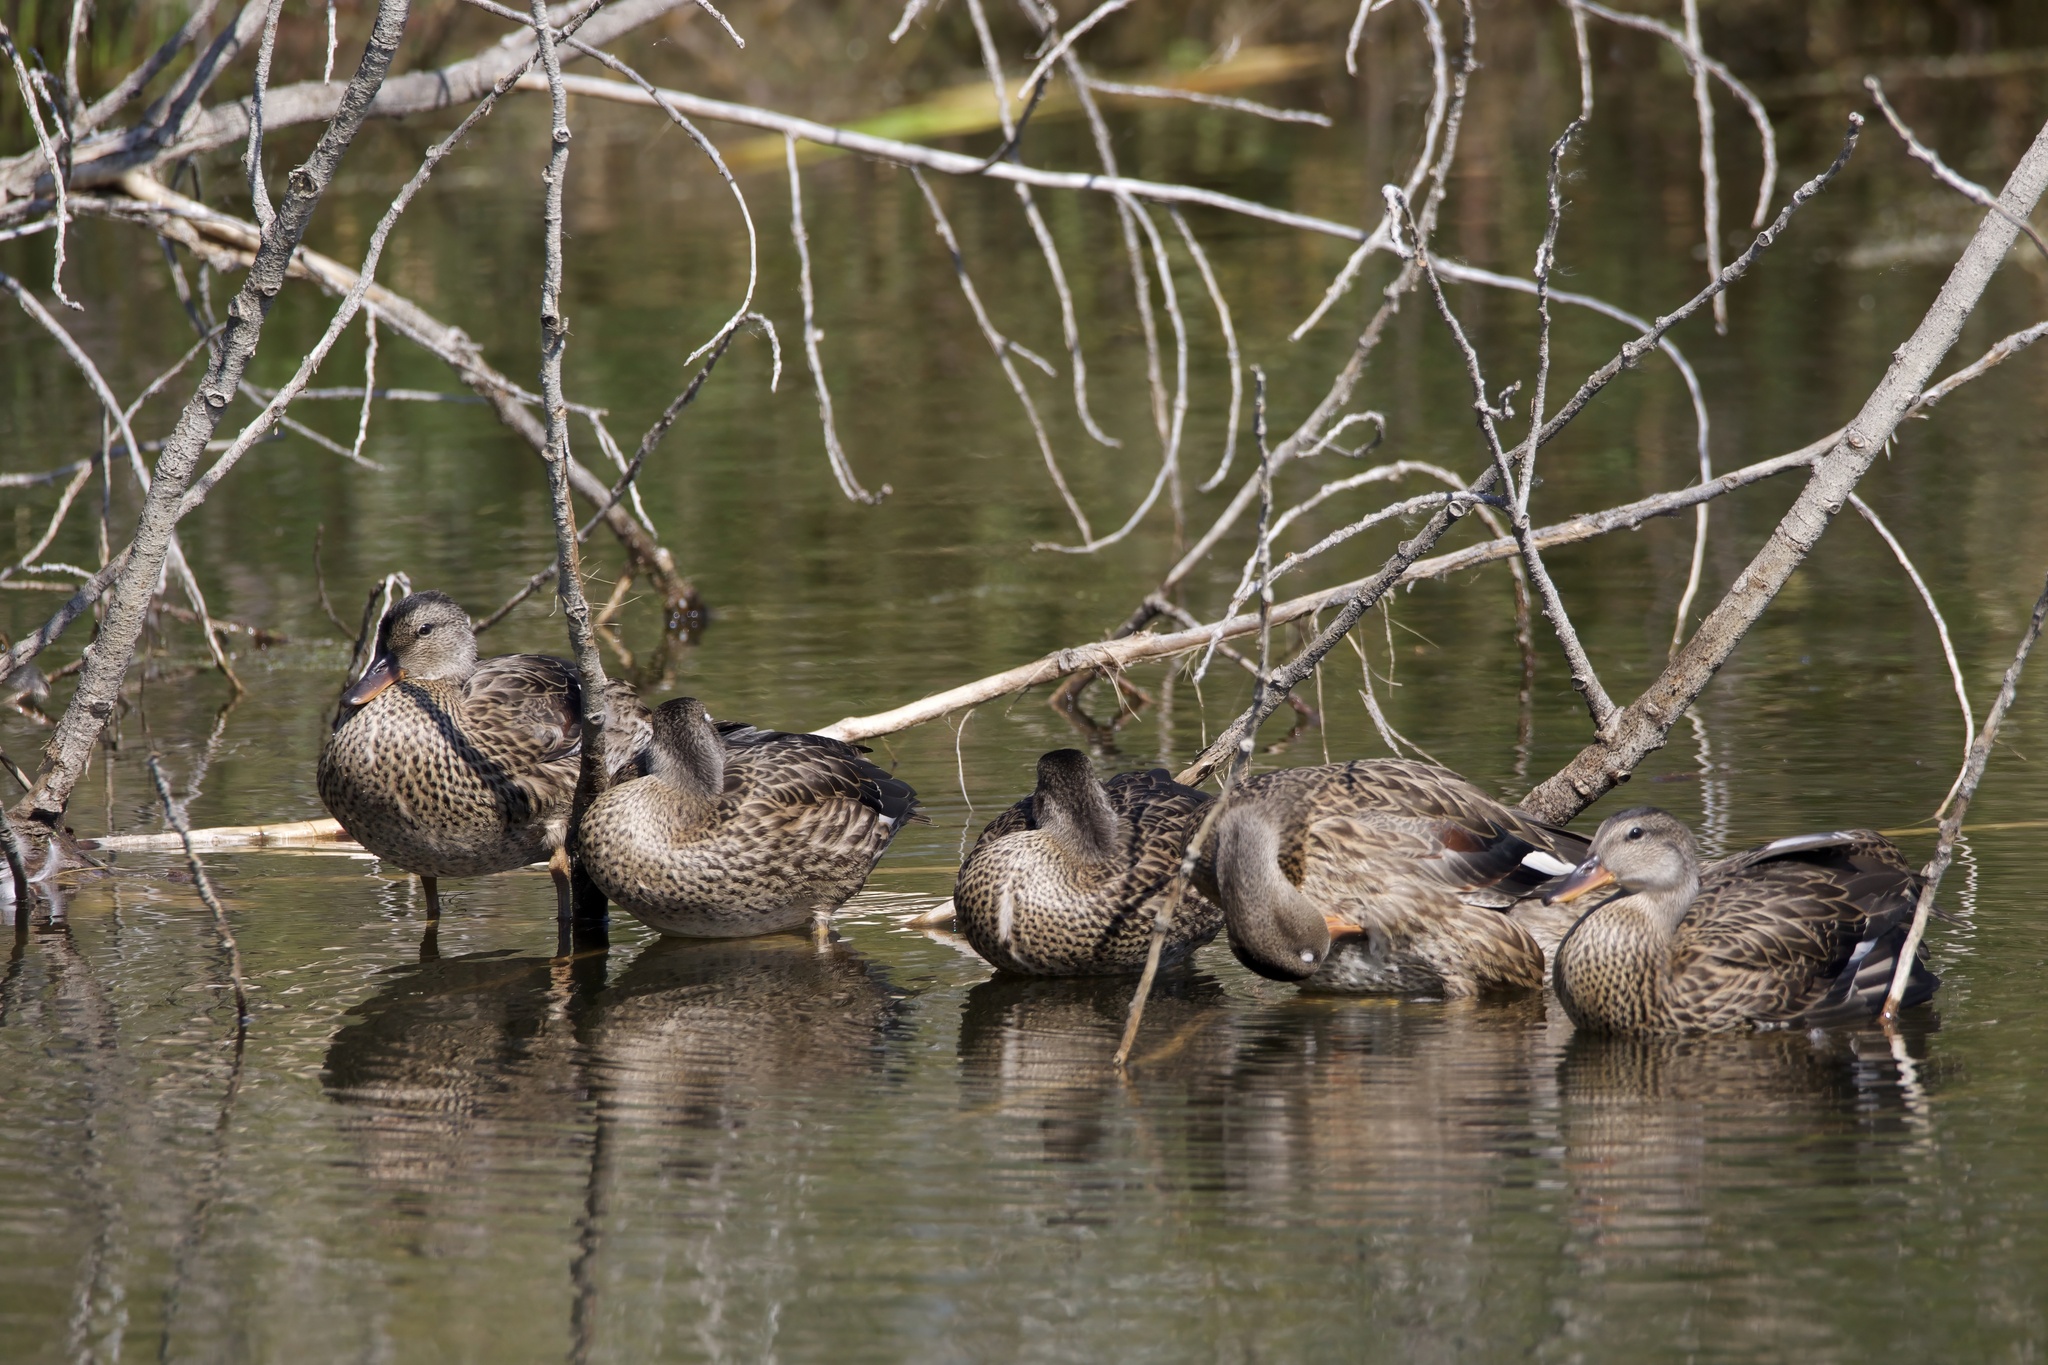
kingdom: Animalia
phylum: Chordata
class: Aves
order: Anseriformes
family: Anatidae
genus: Spatula
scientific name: Spatula discors
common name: Blue-winged teal
